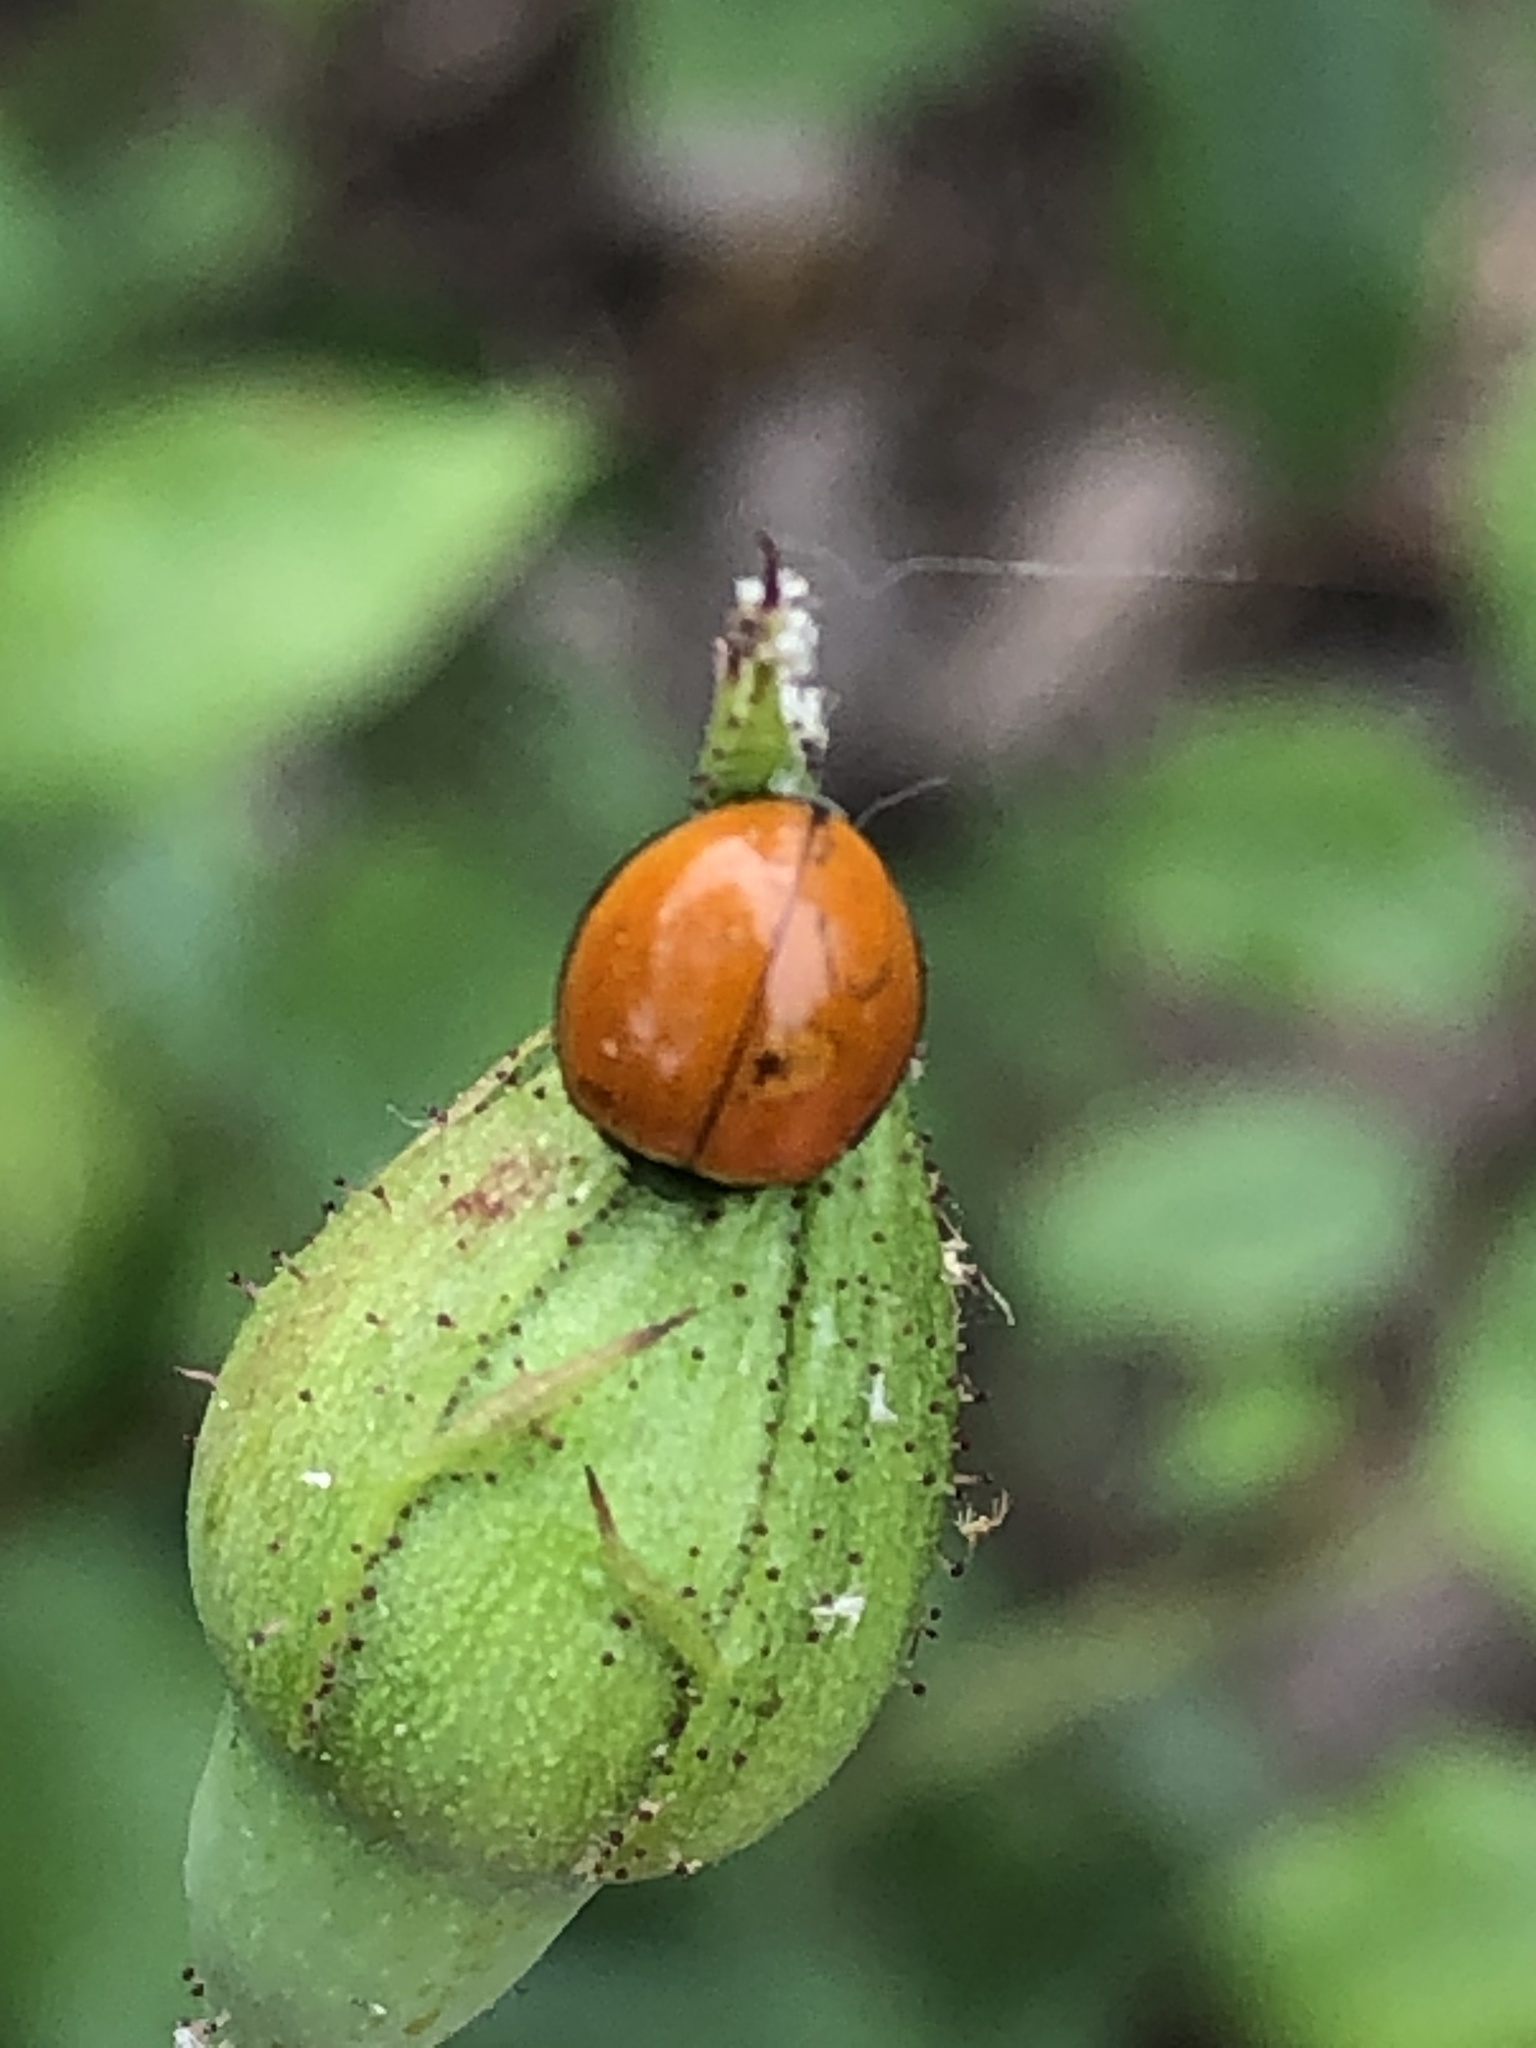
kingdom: Animalia
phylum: Arthropoda
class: Insecta
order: Coleoptera
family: Coccinellidae
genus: Cycloneda
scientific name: Cycloneda sanguinea
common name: Ladybird beetle
